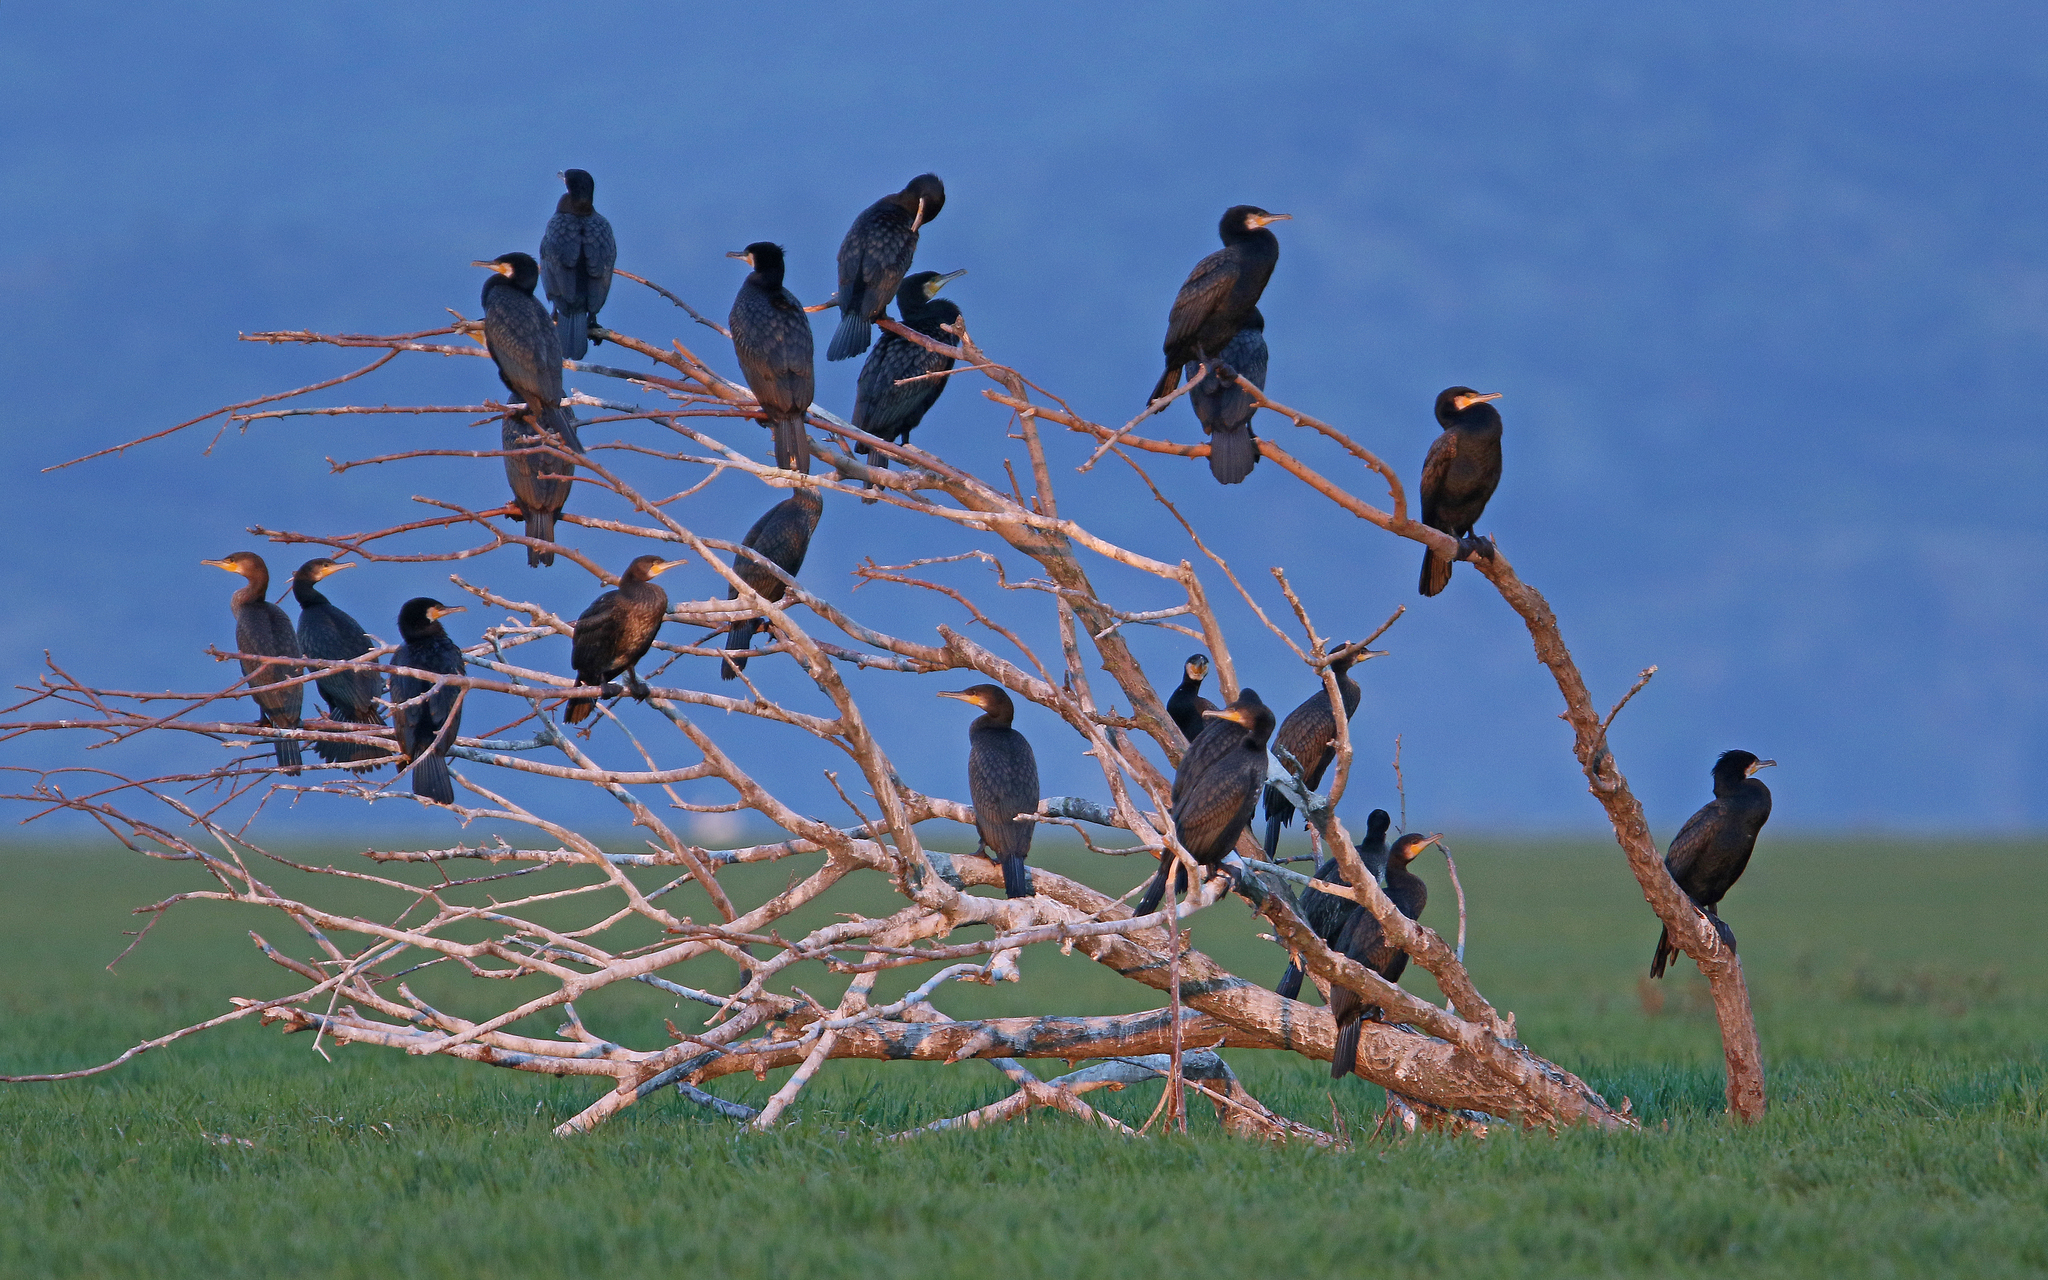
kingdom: Animalia
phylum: Chordata
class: Aves
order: Suliformes
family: Phalacrocoracidae
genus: Phalacrocorax
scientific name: Phalacrocorax carbo
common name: Great cormorant
